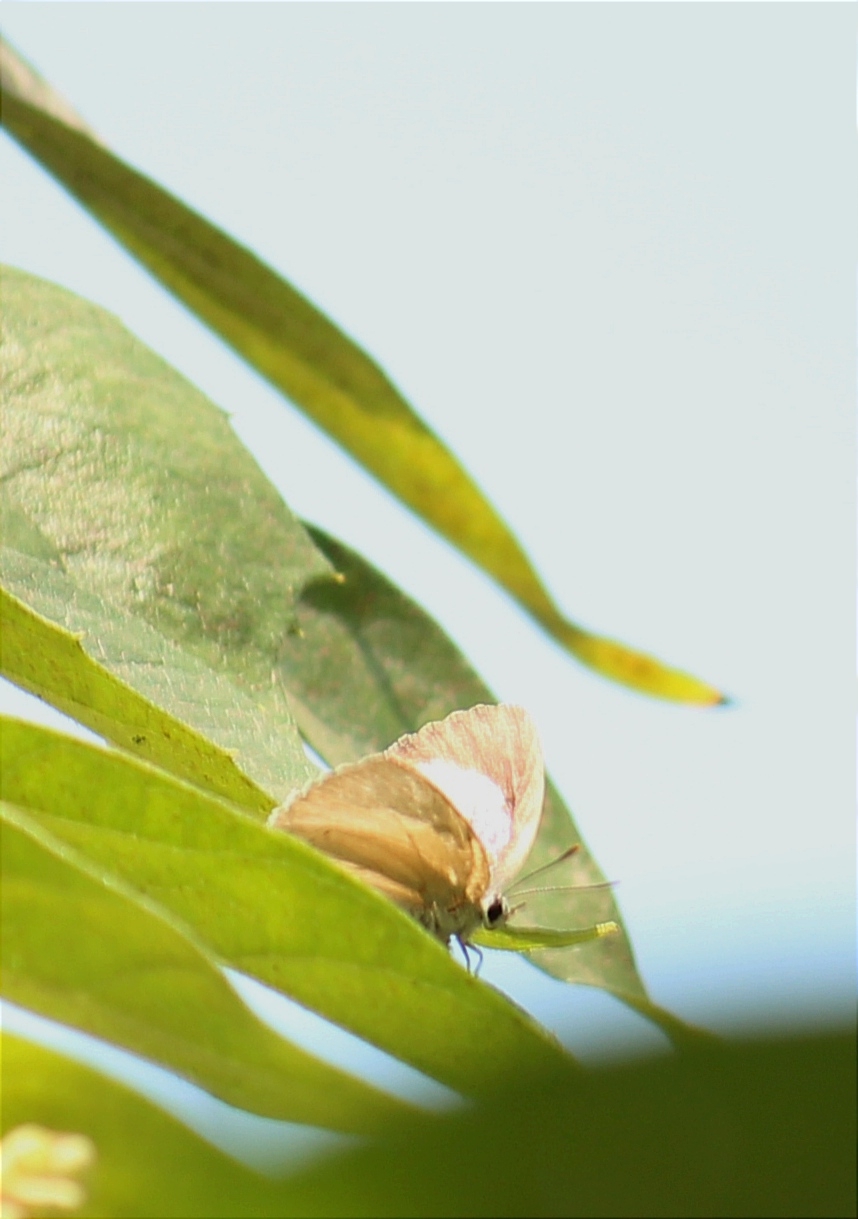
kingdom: Animalia
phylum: Arthropoda
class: Insecta
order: Lepidoptera
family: Lycaenidae
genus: Tajuria
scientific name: Tajuria cippus
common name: Peacock royal
